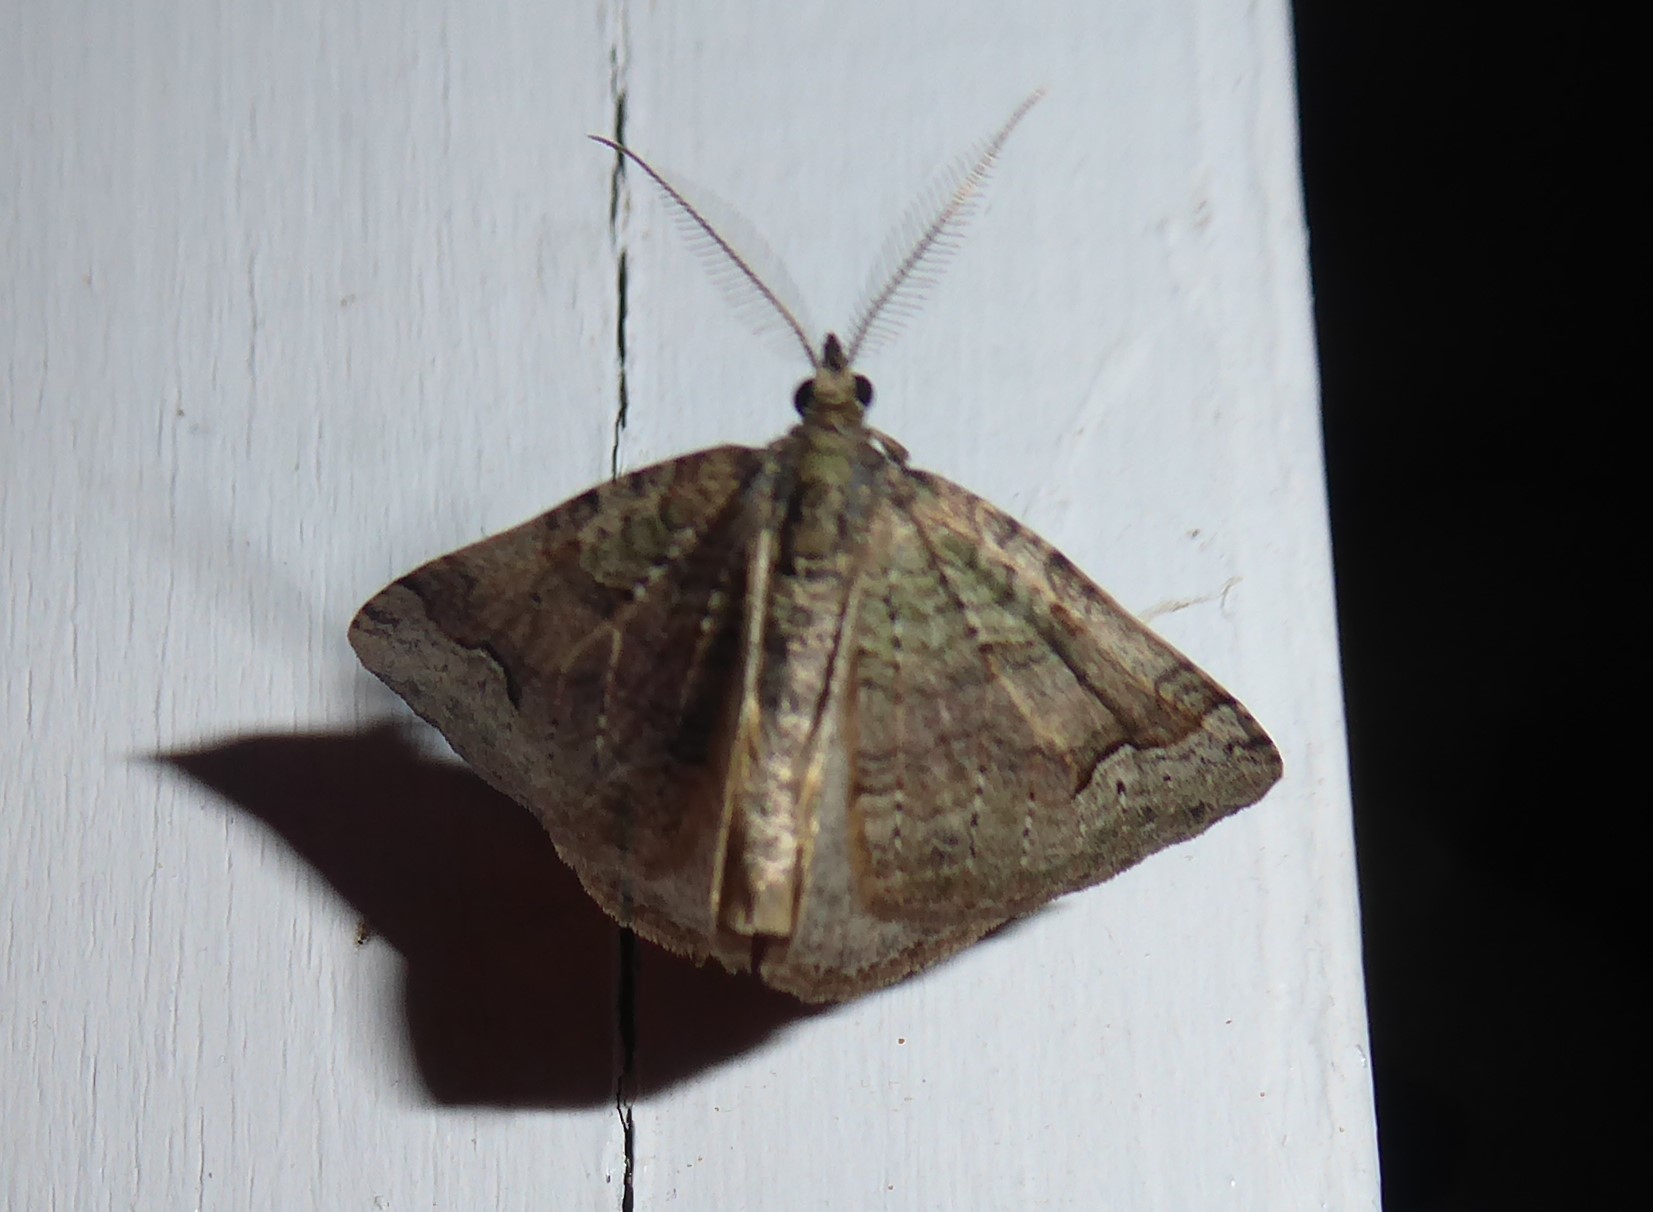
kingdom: Animalia
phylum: Arthropoda
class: Insecta
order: Lepidoptera
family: Geometridae
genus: Epyaxa
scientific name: Epyaxa rosearia
